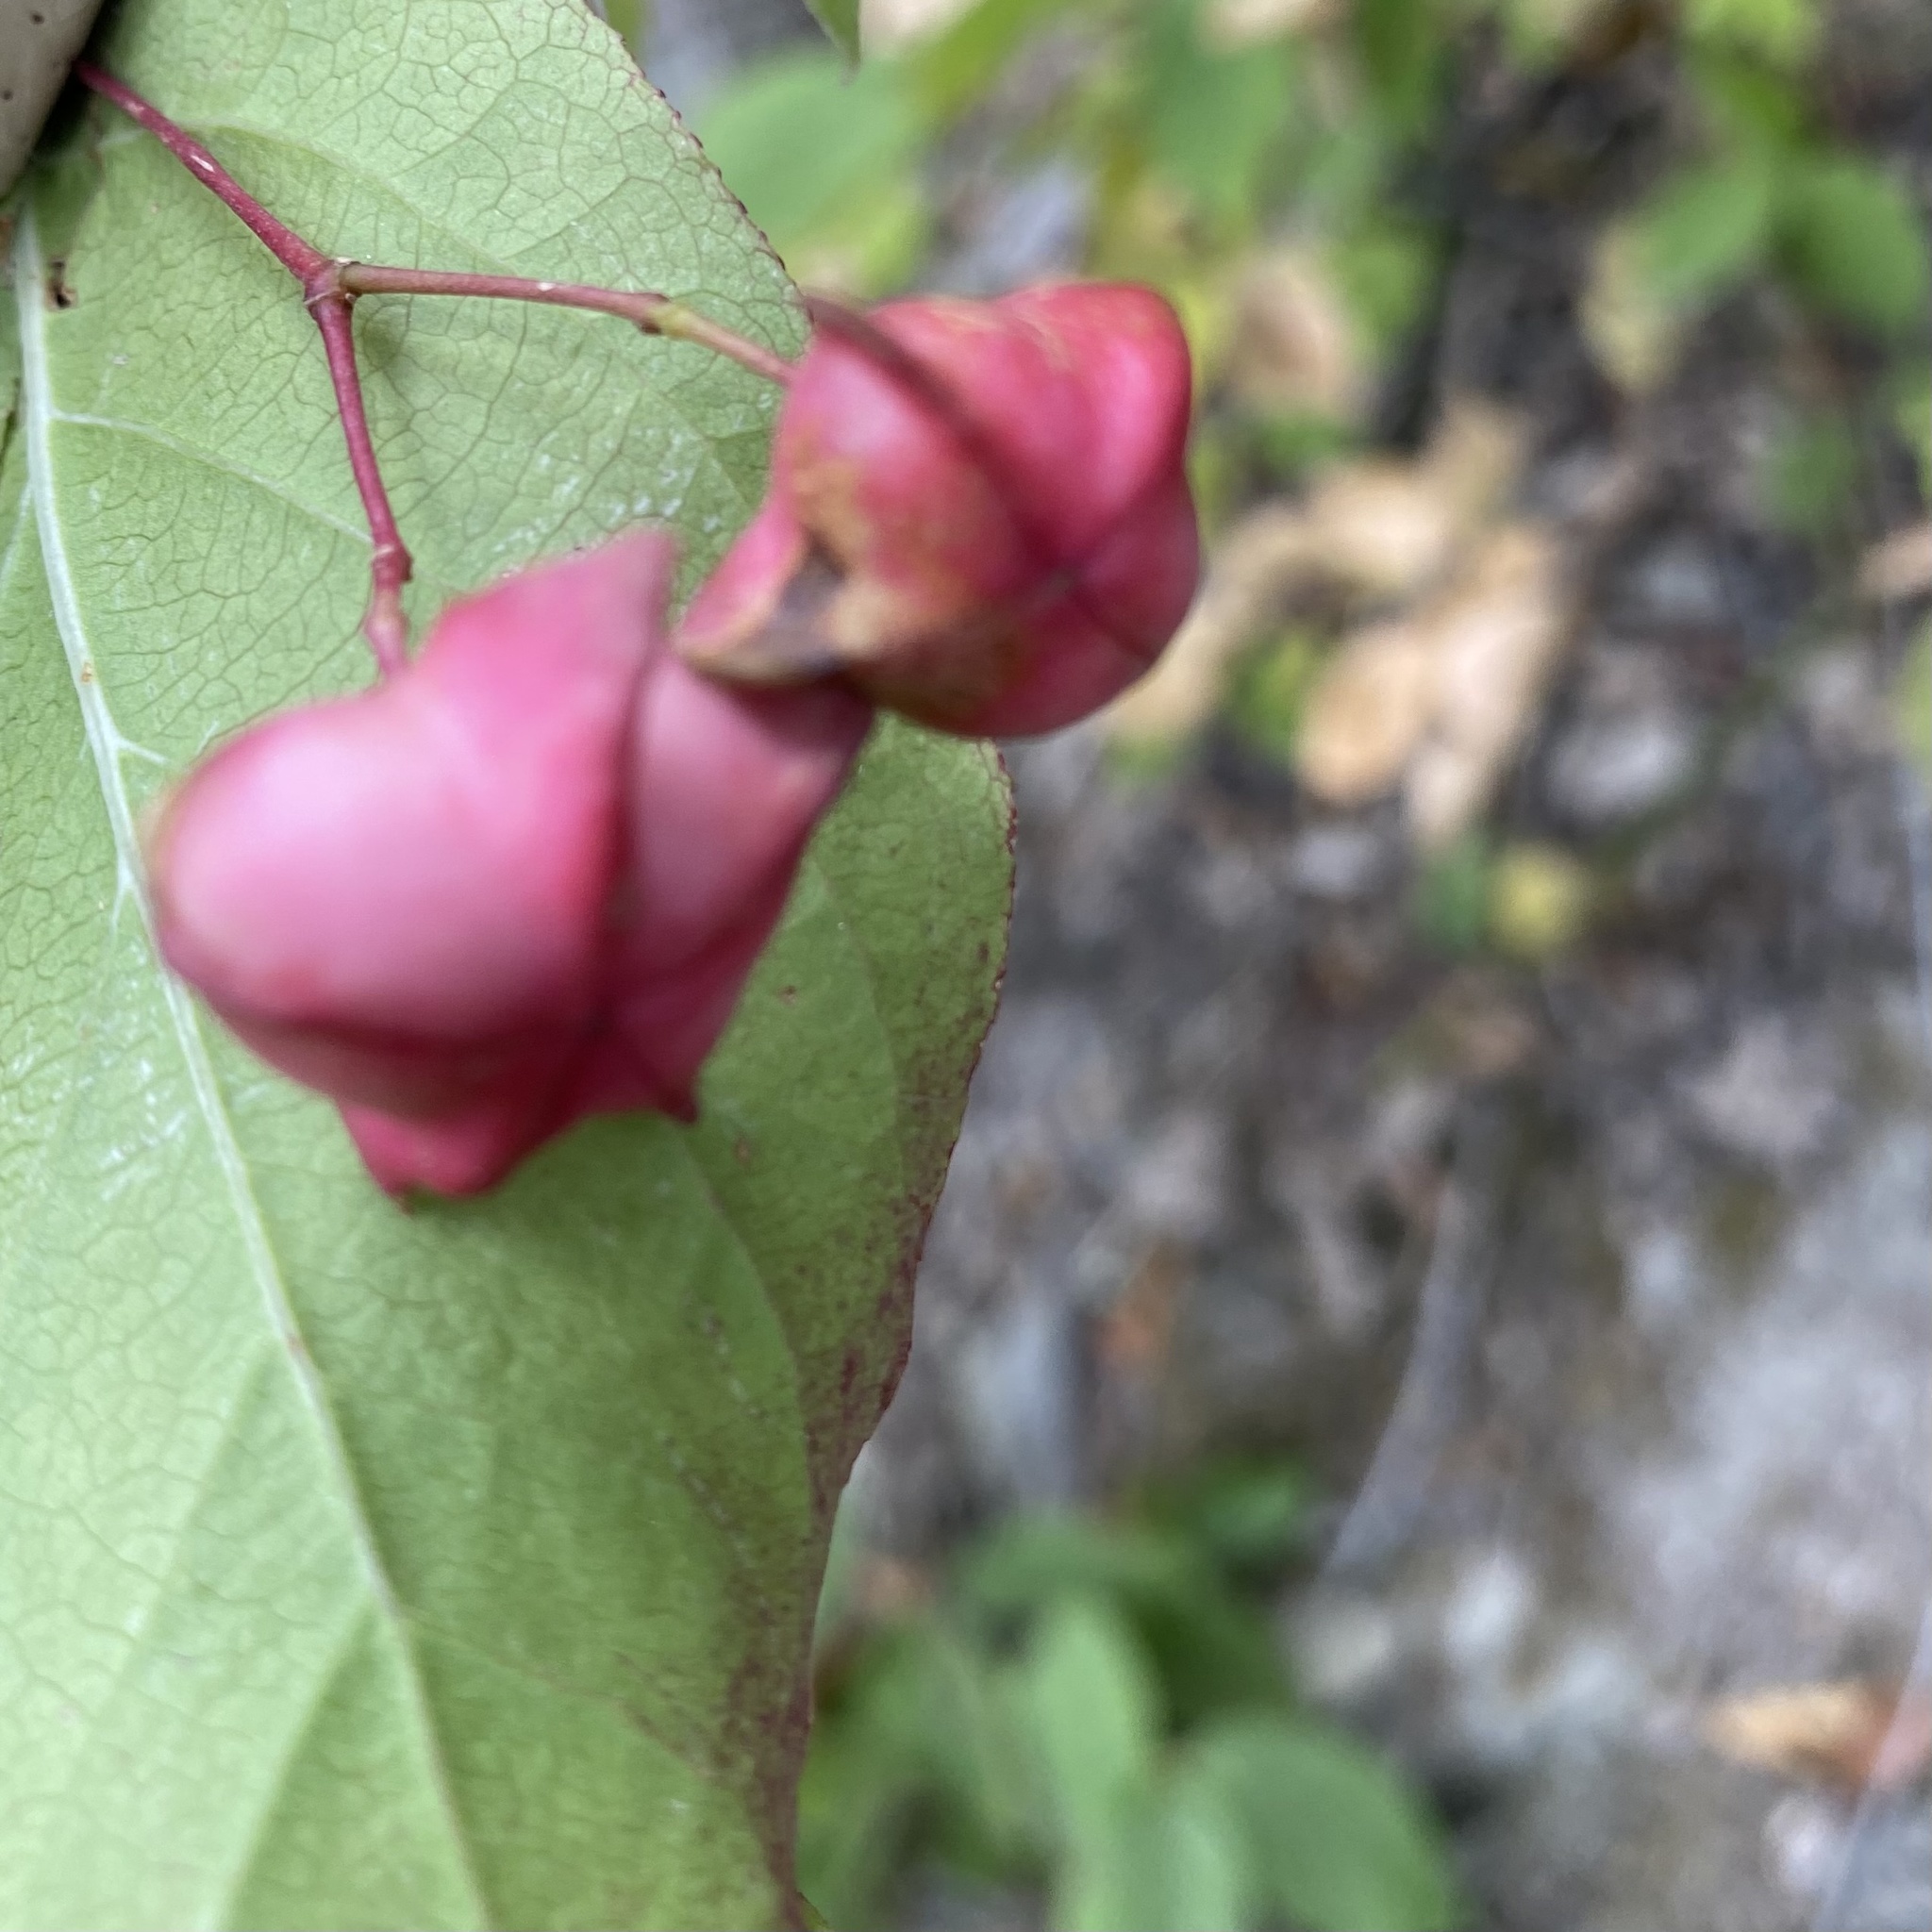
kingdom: Plantae
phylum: Tracheophyta
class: Magnoliopsida
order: Celastrales
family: Celastraceae
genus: Euonymus
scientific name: Euonymus latifolius
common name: Large-leaved spindle
